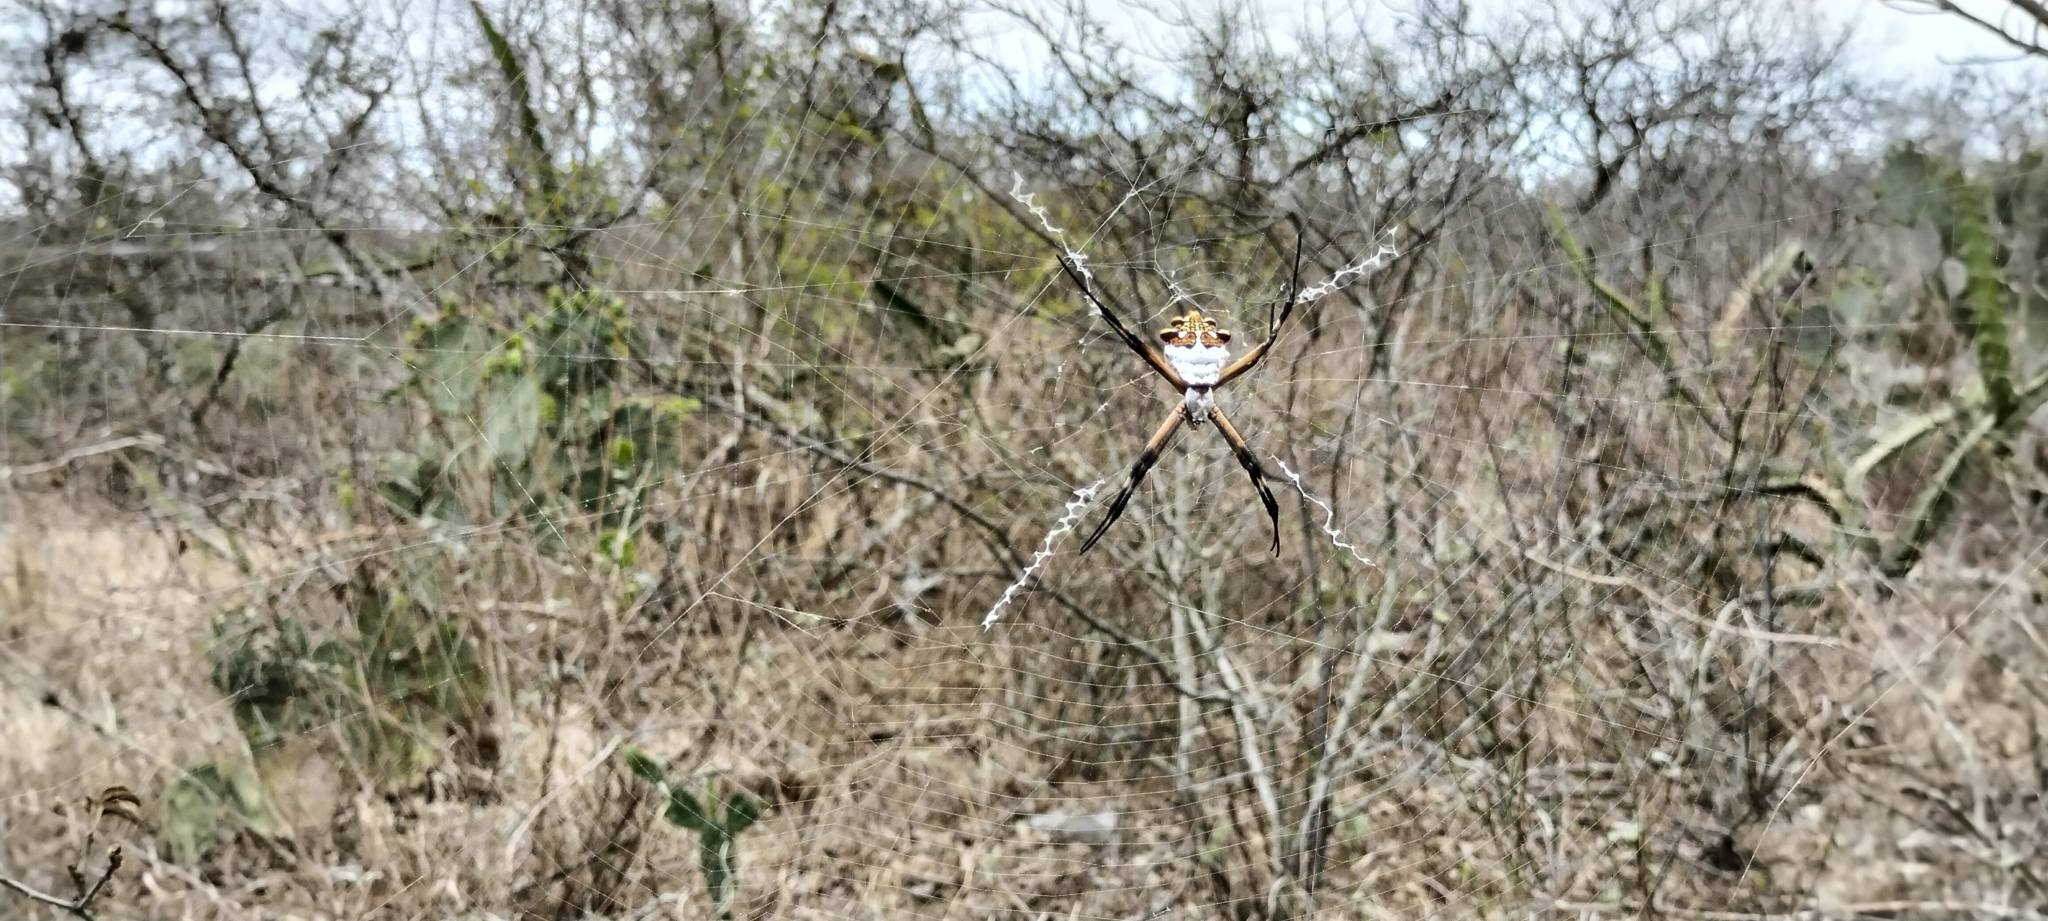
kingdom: Animalia
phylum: Arthropoda
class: Arachnida
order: Araneae
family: Araneidae
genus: Argiope
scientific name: Argiope argentata
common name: Orb weavers
